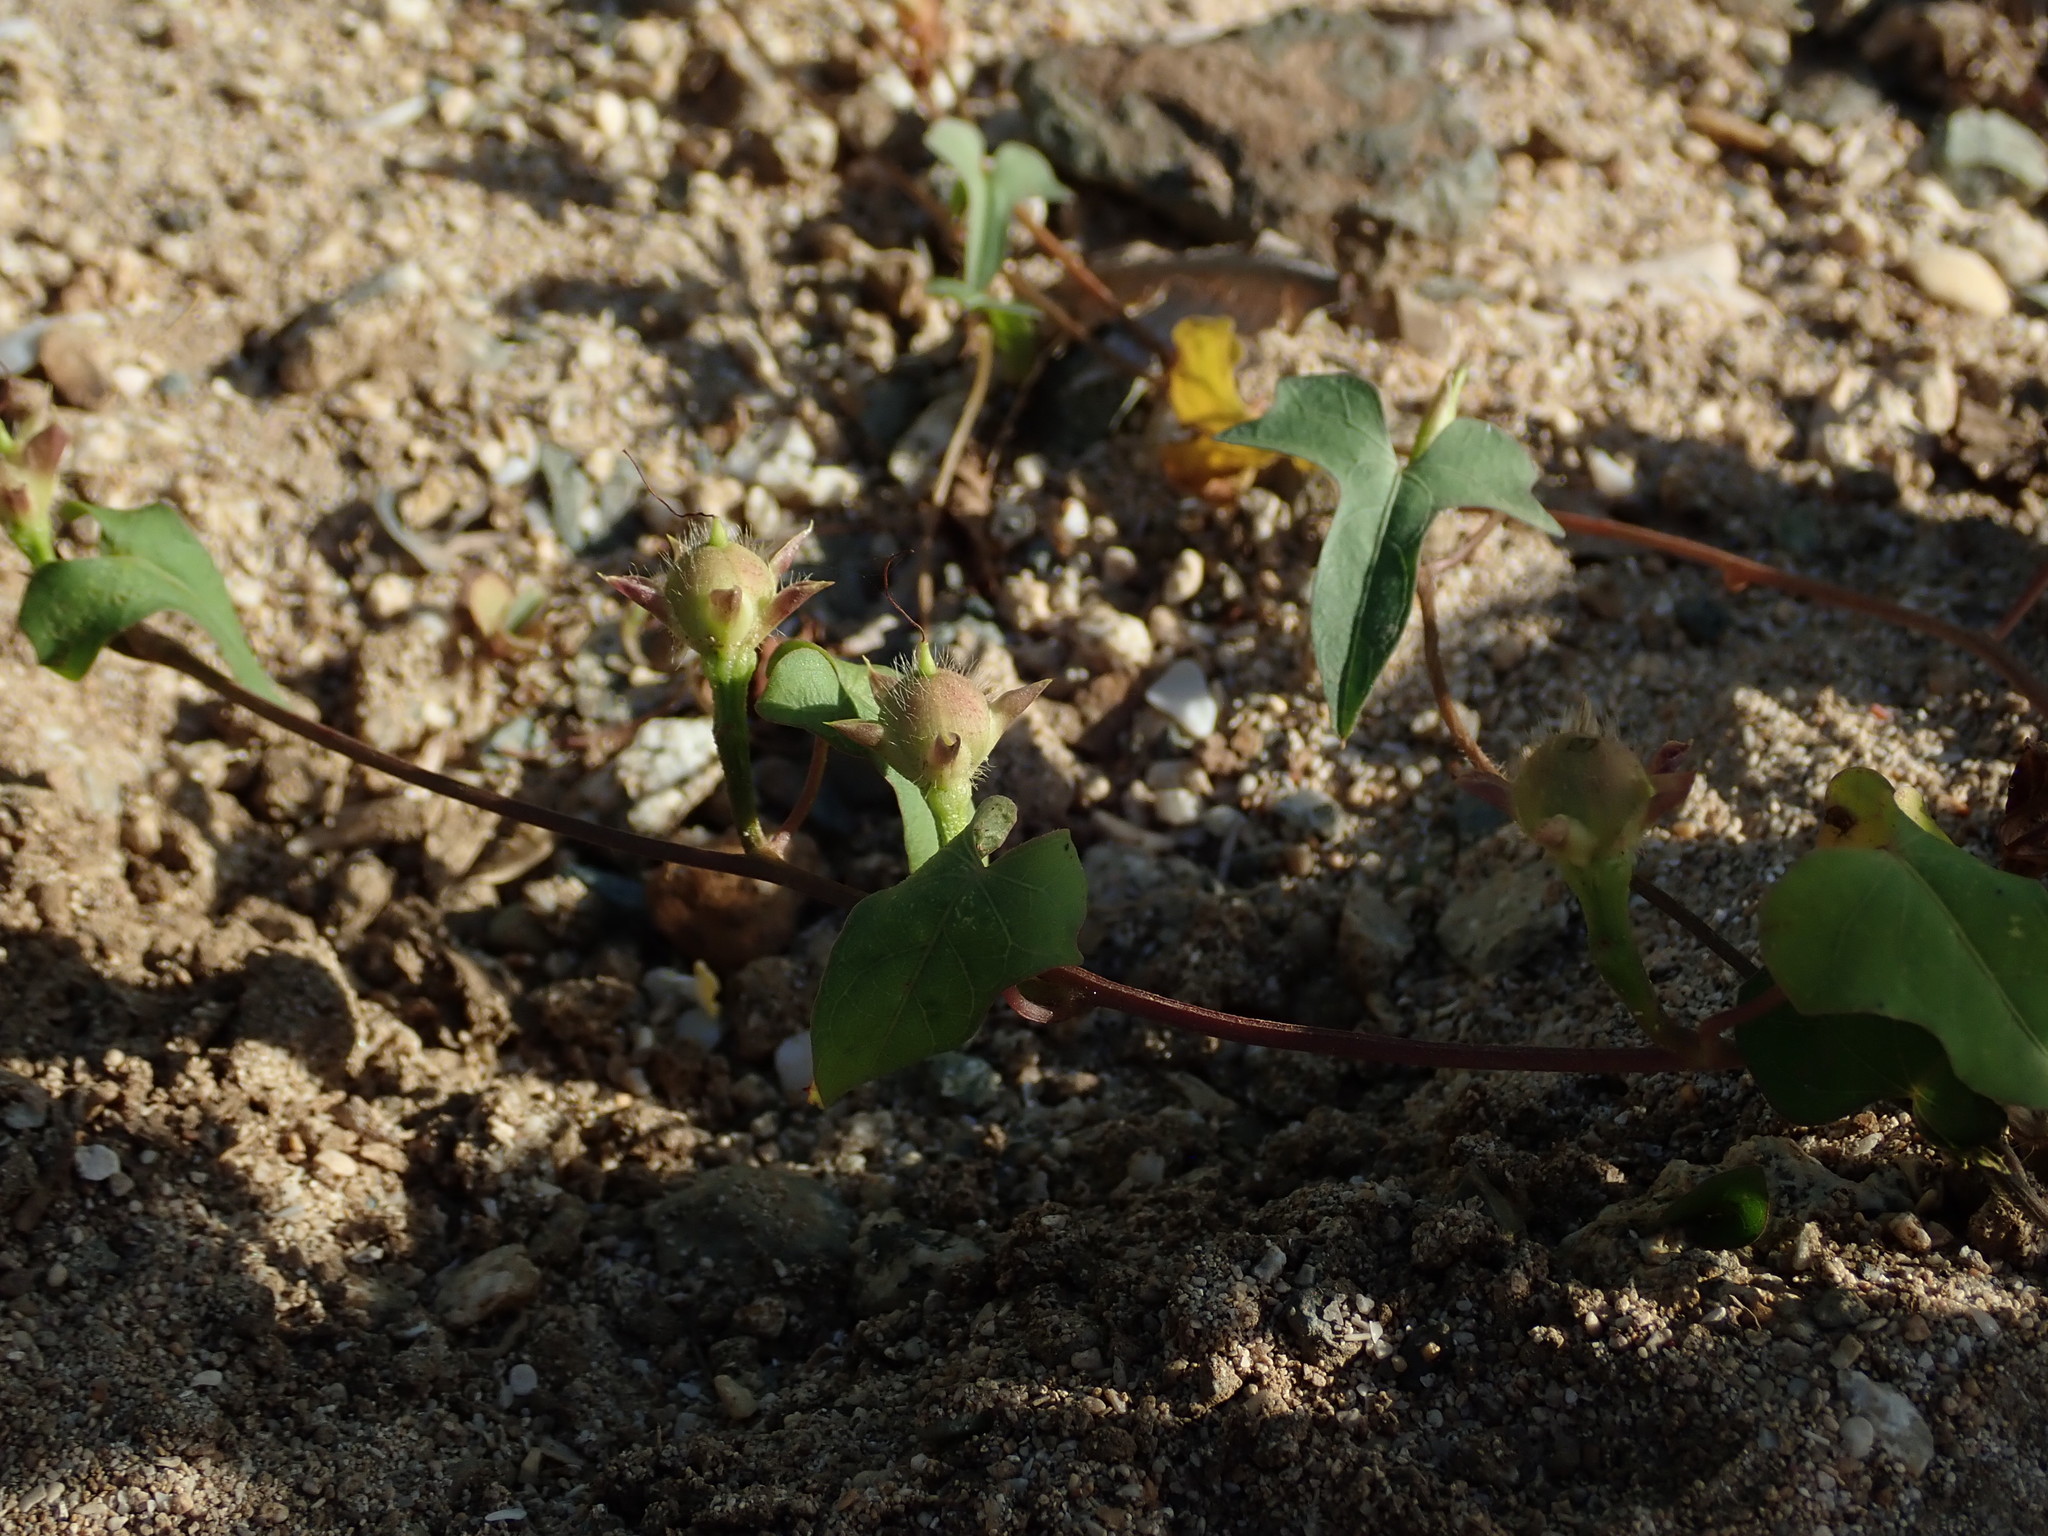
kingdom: Plantae
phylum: Tracheophyta
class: Magnoliopsida
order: Solanales
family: Convolvulaceae
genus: Ipomoea
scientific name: Ipomoea triloba
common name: Little-bell
